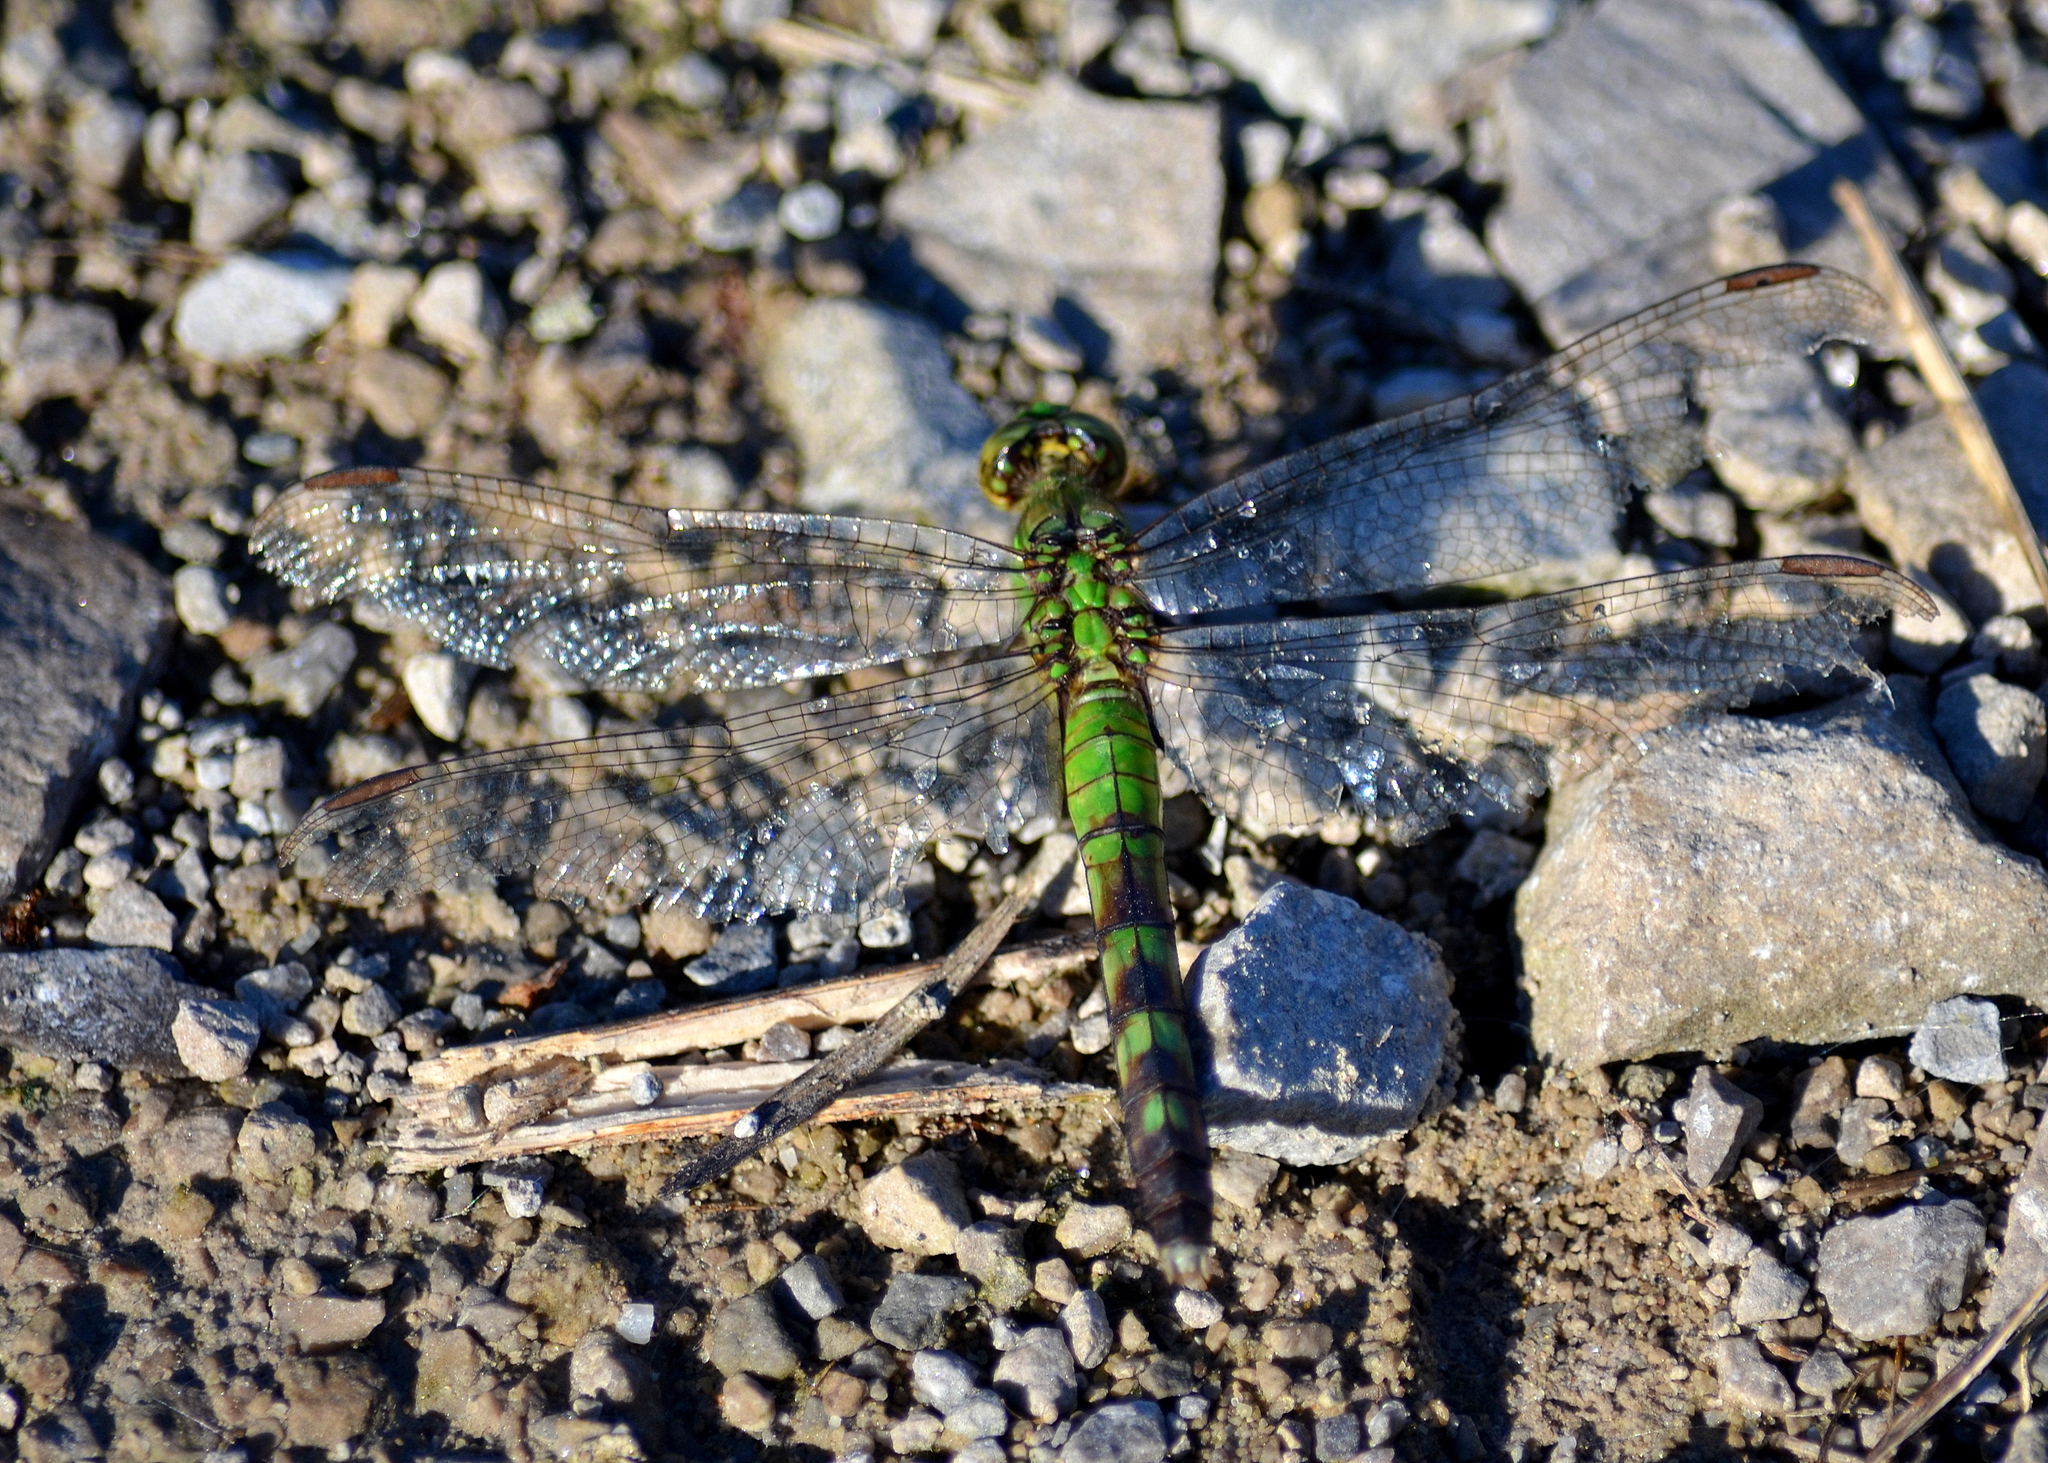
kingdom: Animalia
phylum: Arthropoda
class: Insecta
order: Odonata
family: Libellulidae
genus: Erythemis
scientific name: Erythemis simplicicollis
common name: Eastern pondhawk
